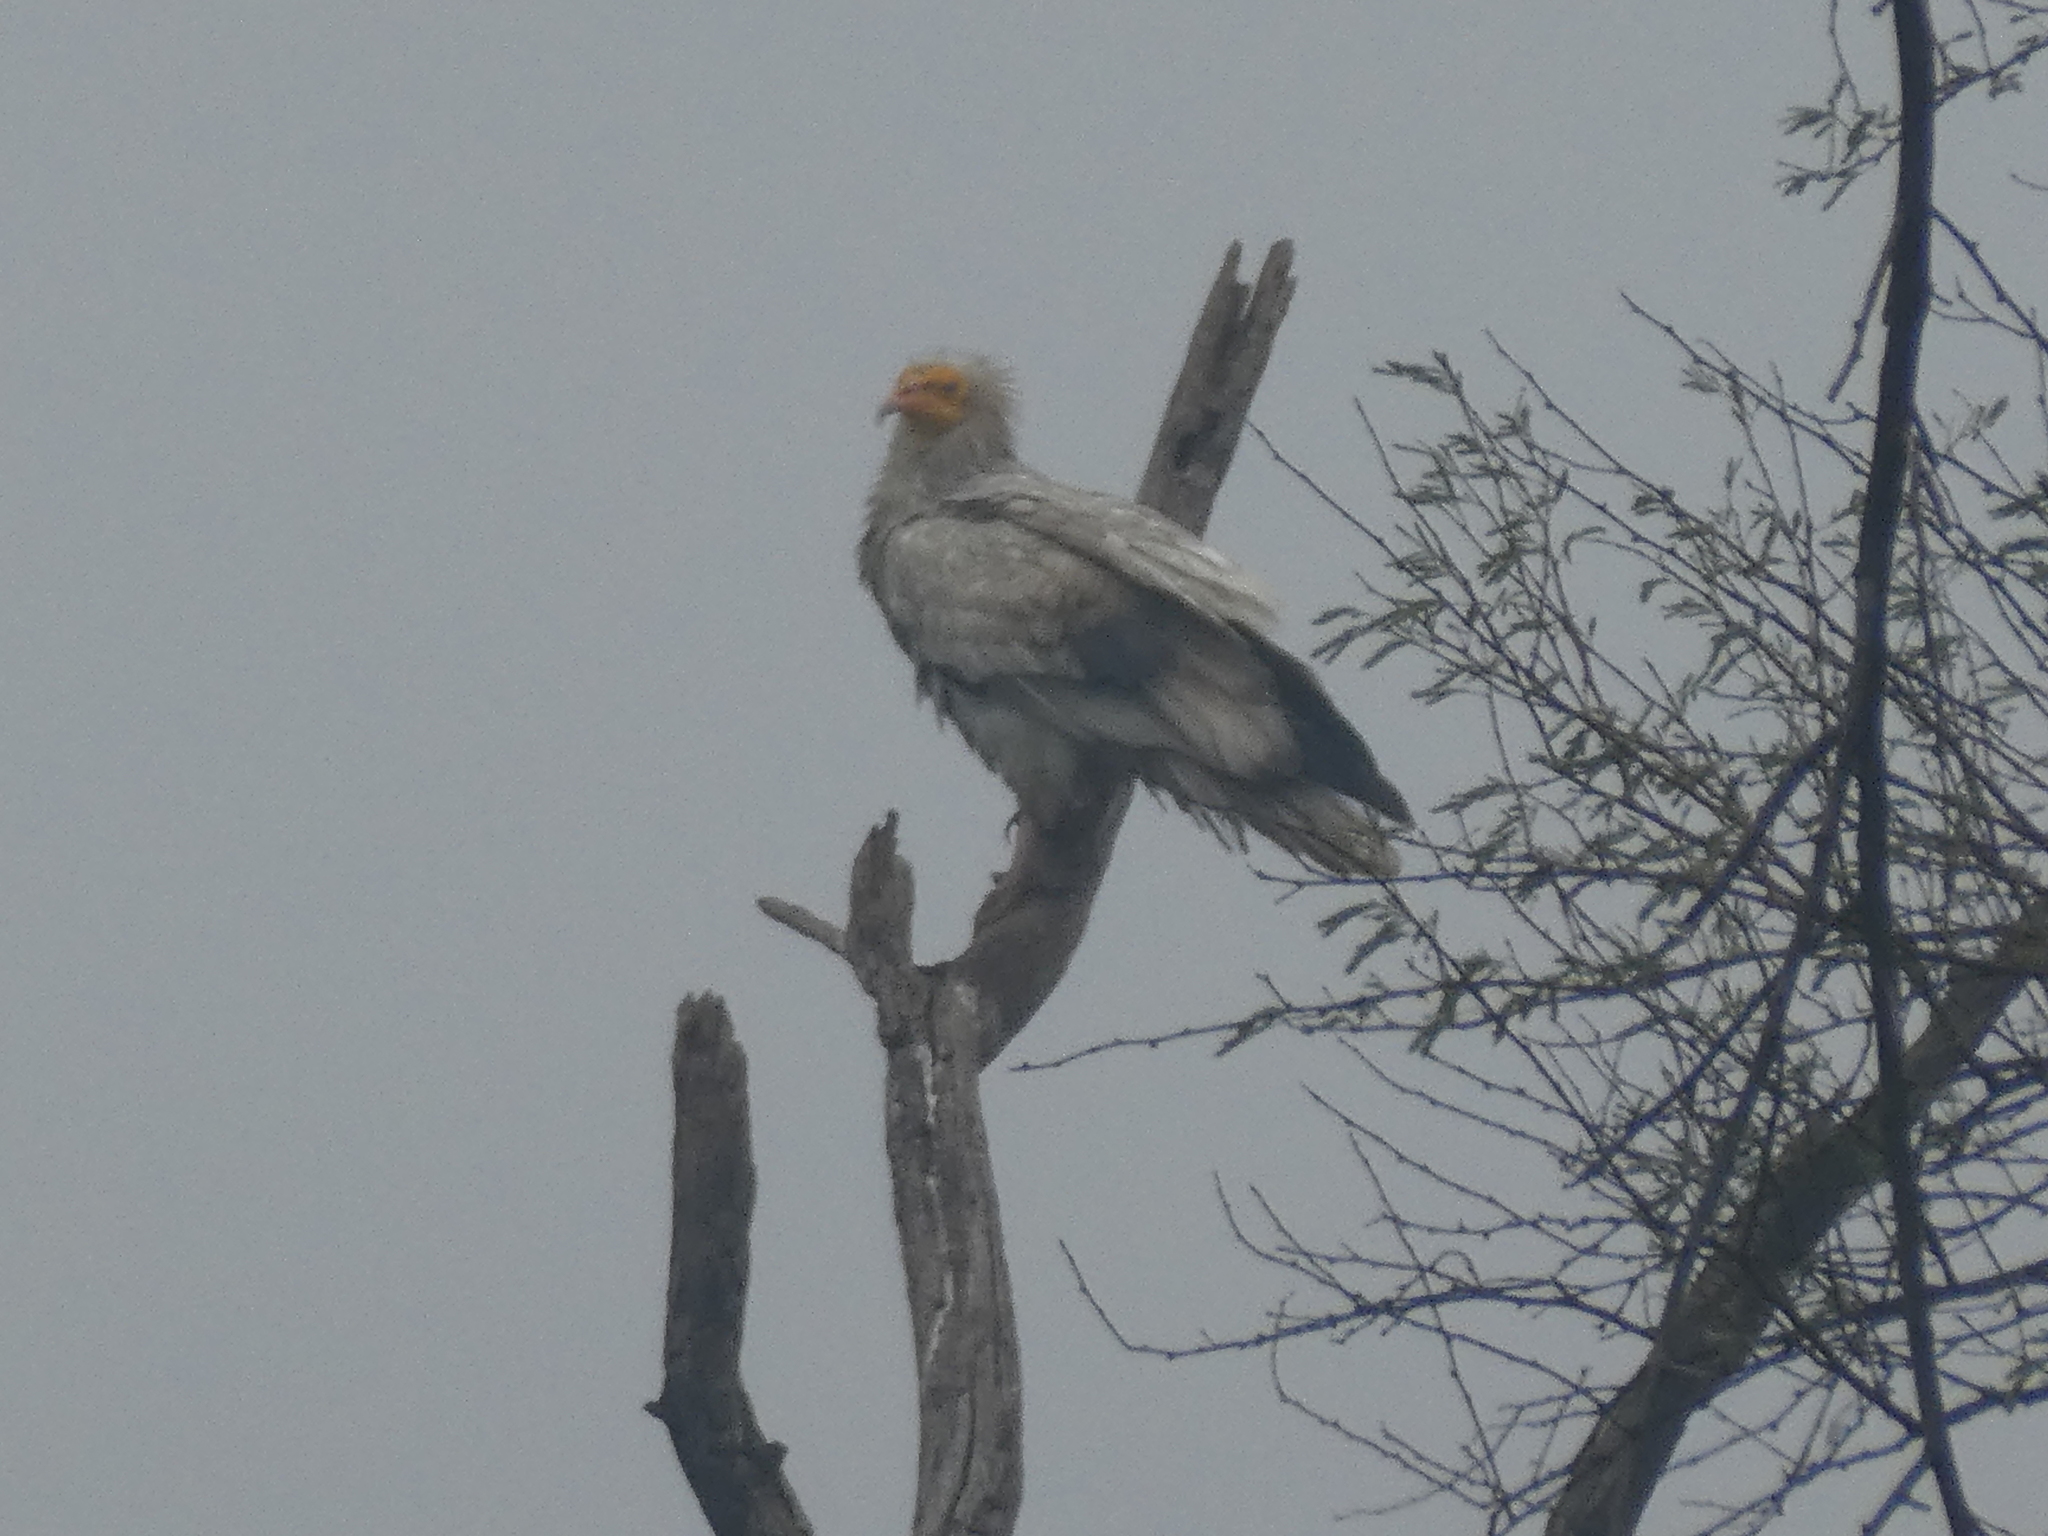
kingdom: Animalia
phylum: Chordata
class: Aves
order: Accipitriformes
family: Accipitridae
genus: Neophron
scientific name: Neophron percnopterus
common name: Egyptian vulture
